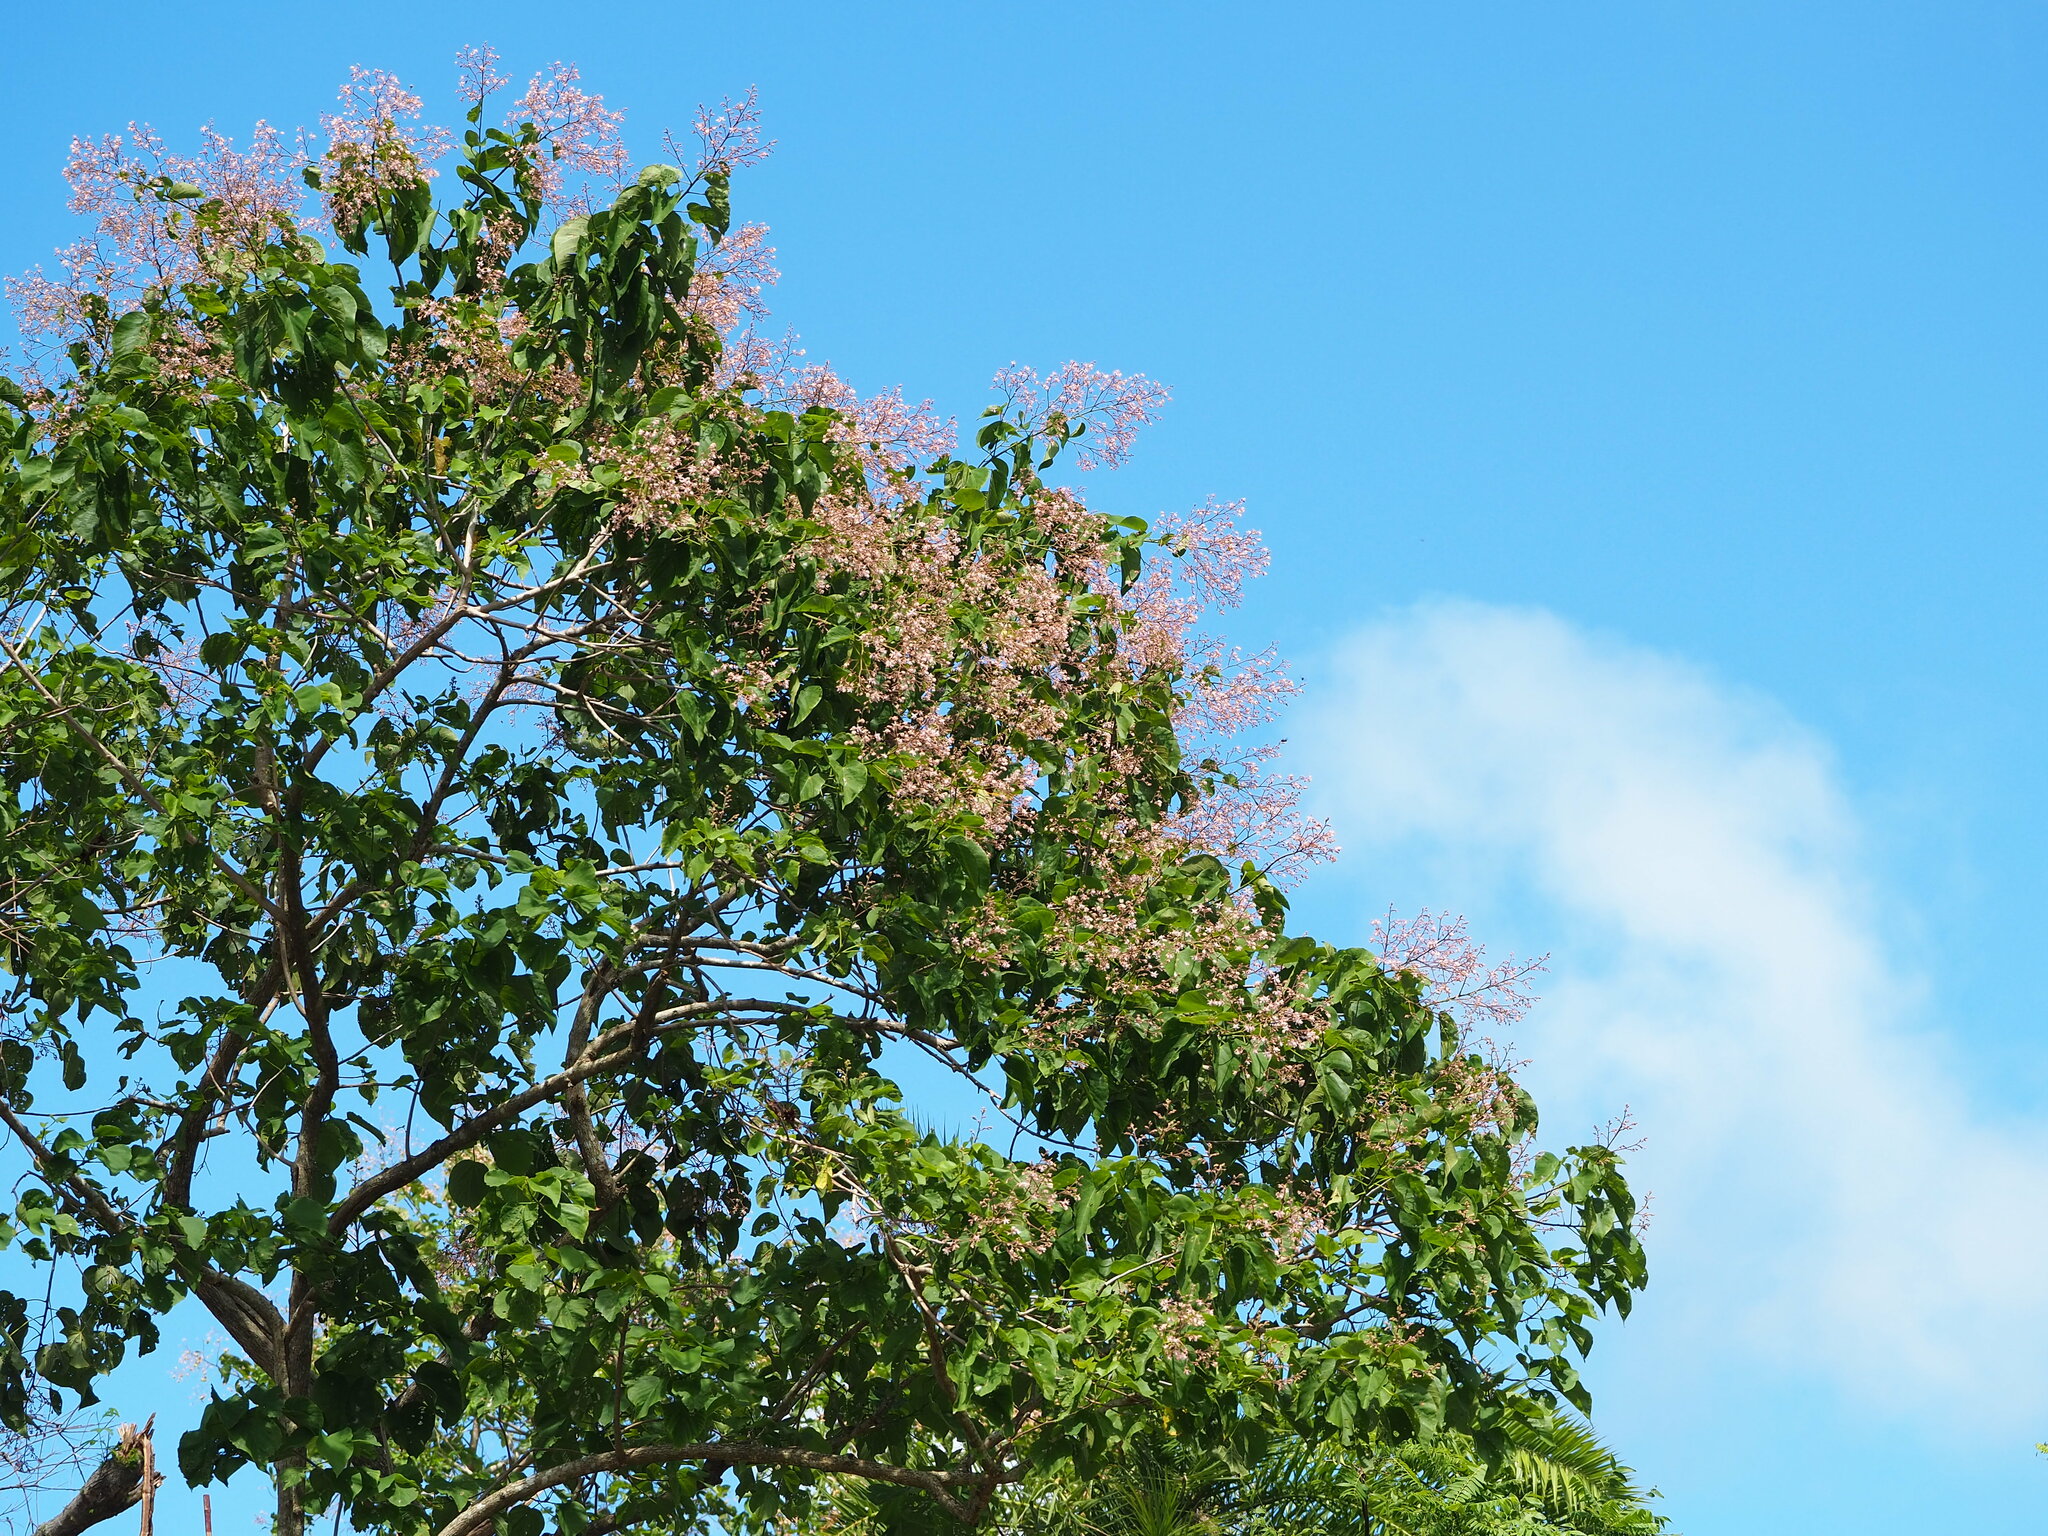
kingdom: Plantae
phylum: Tracheophyta
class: Magnoliopsida
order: Malvales
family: Malvaceae
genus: Kleinhovia
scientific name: Kleinhovia hospita
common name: Guest-tree
